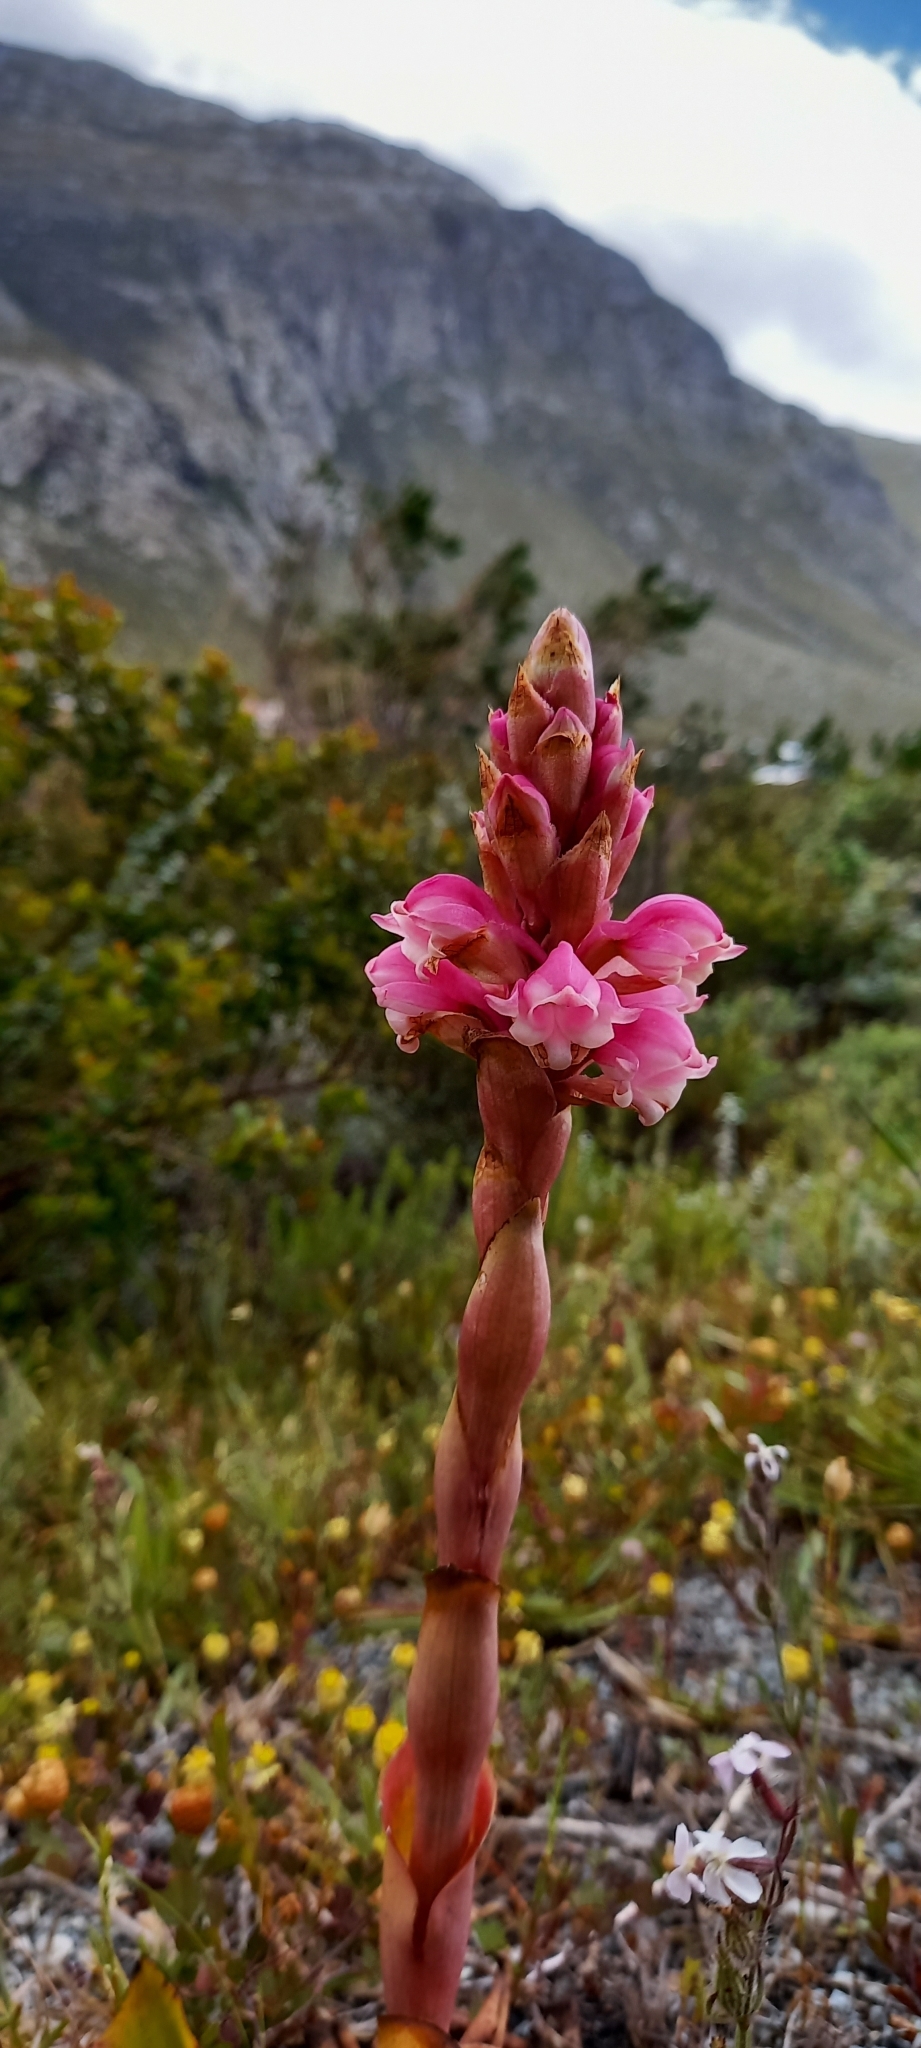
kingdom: Plantae
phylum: Tracheophyta
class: Liliopsida
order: Asparagales
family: Orchidaceae
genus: Satyrium
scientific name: Satyrium carneum
